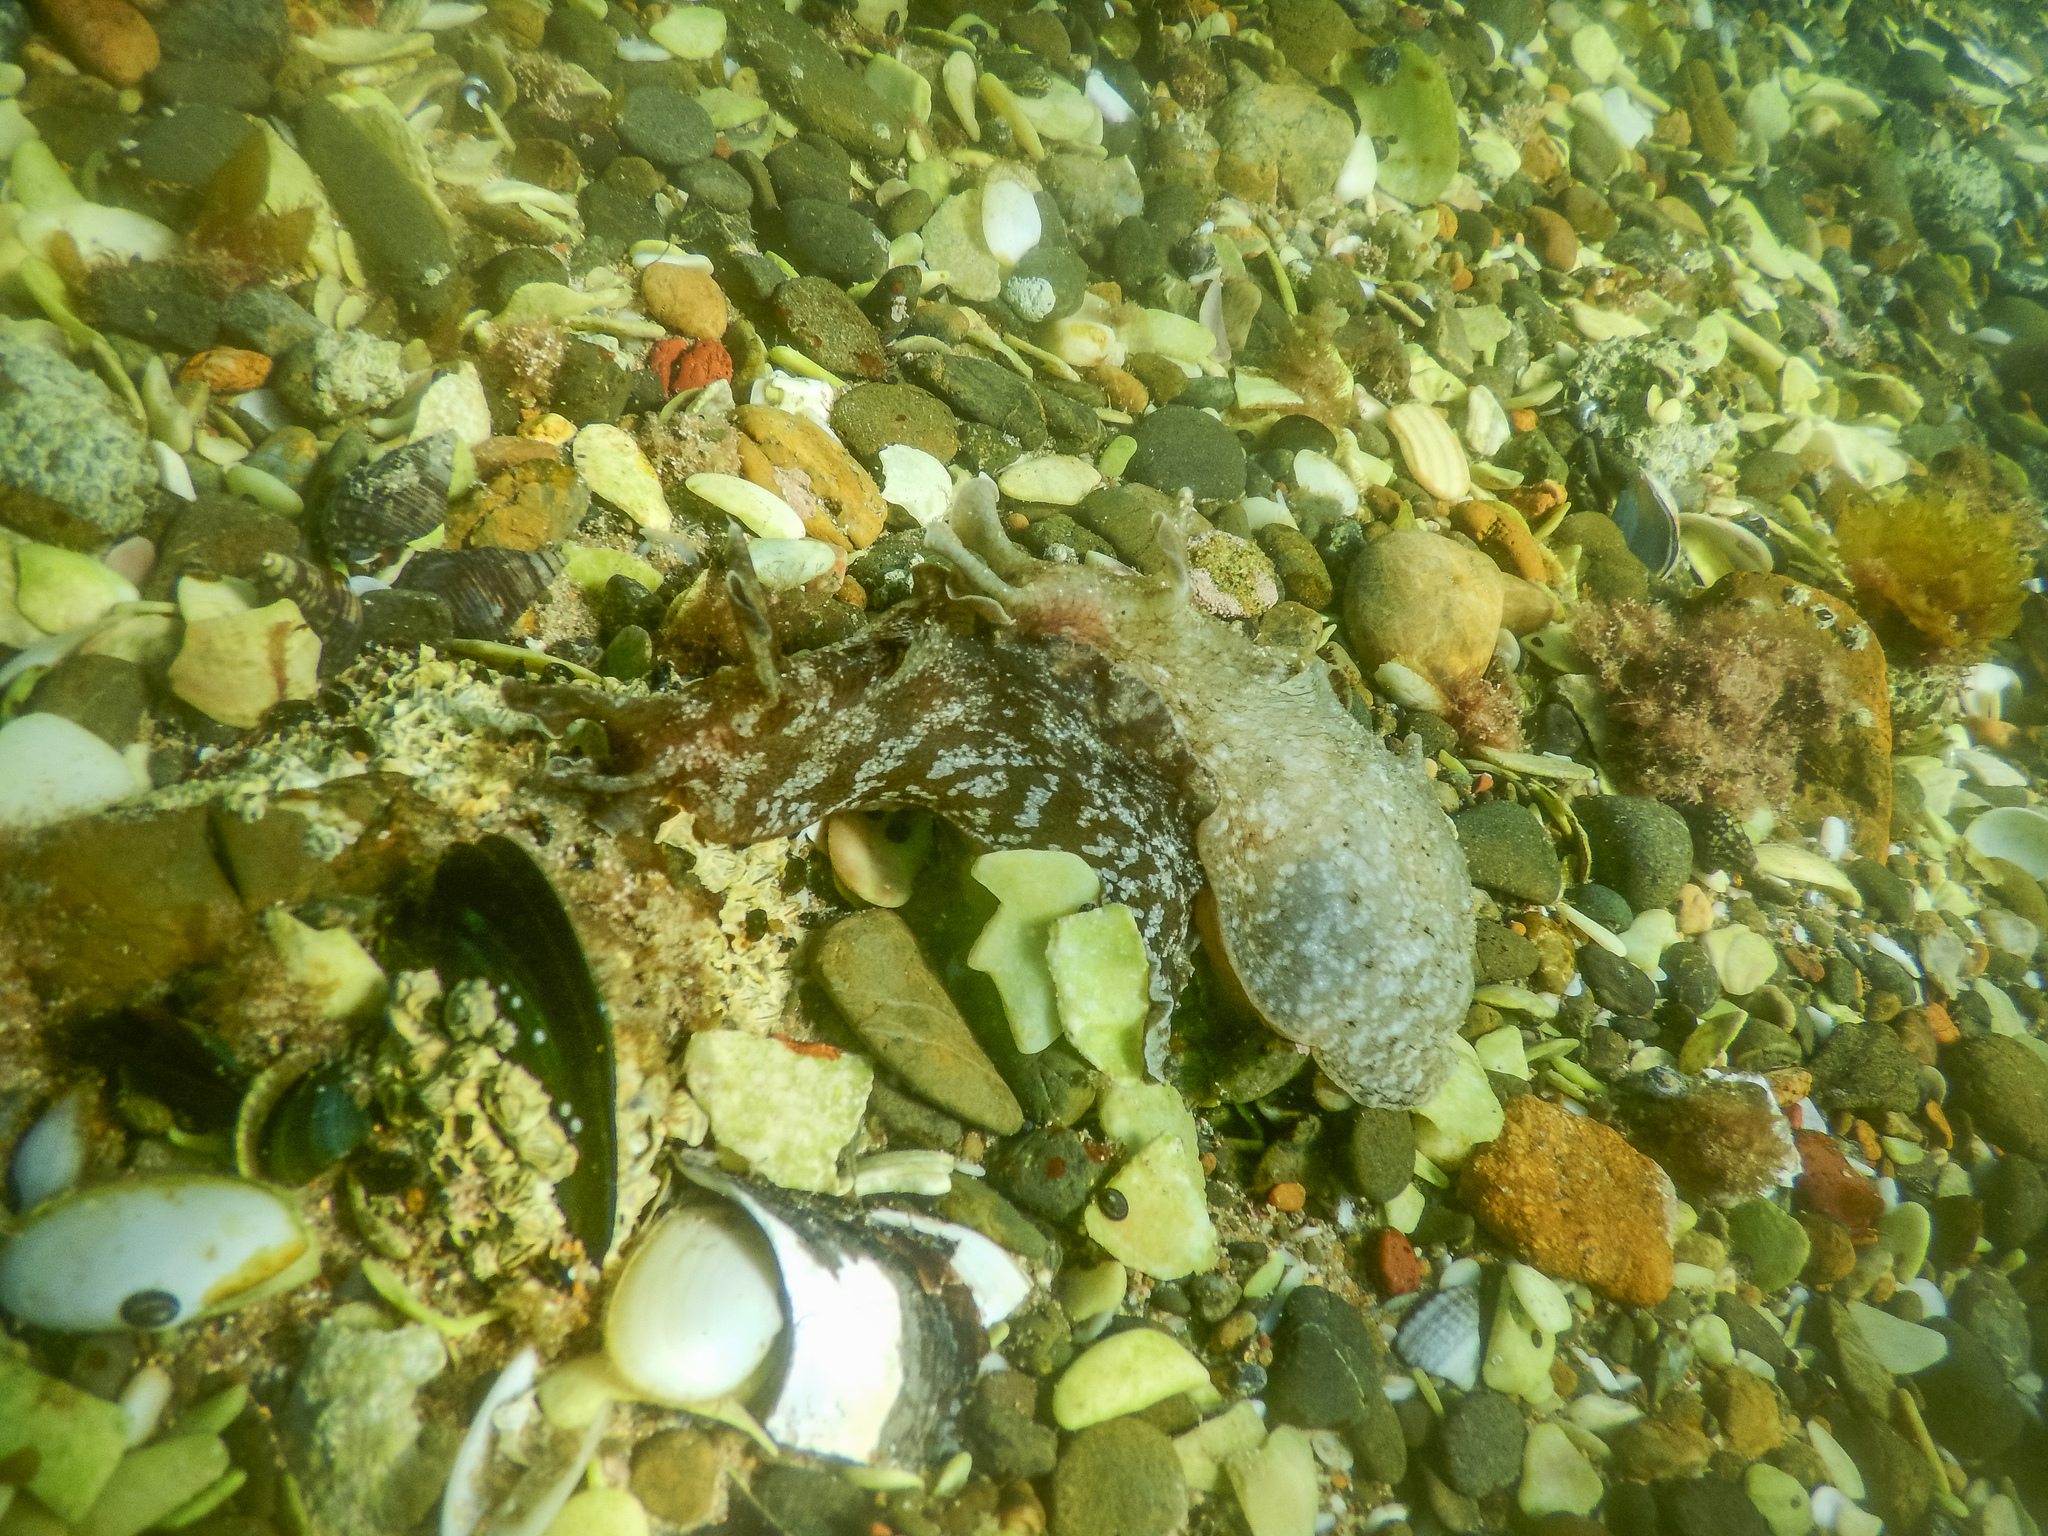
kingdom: Animalia
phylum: Mollusca
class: Gastropoda
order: Aplysiida
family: Aplysiidae
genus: Aplysia
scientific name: Aplysia keraudreni
